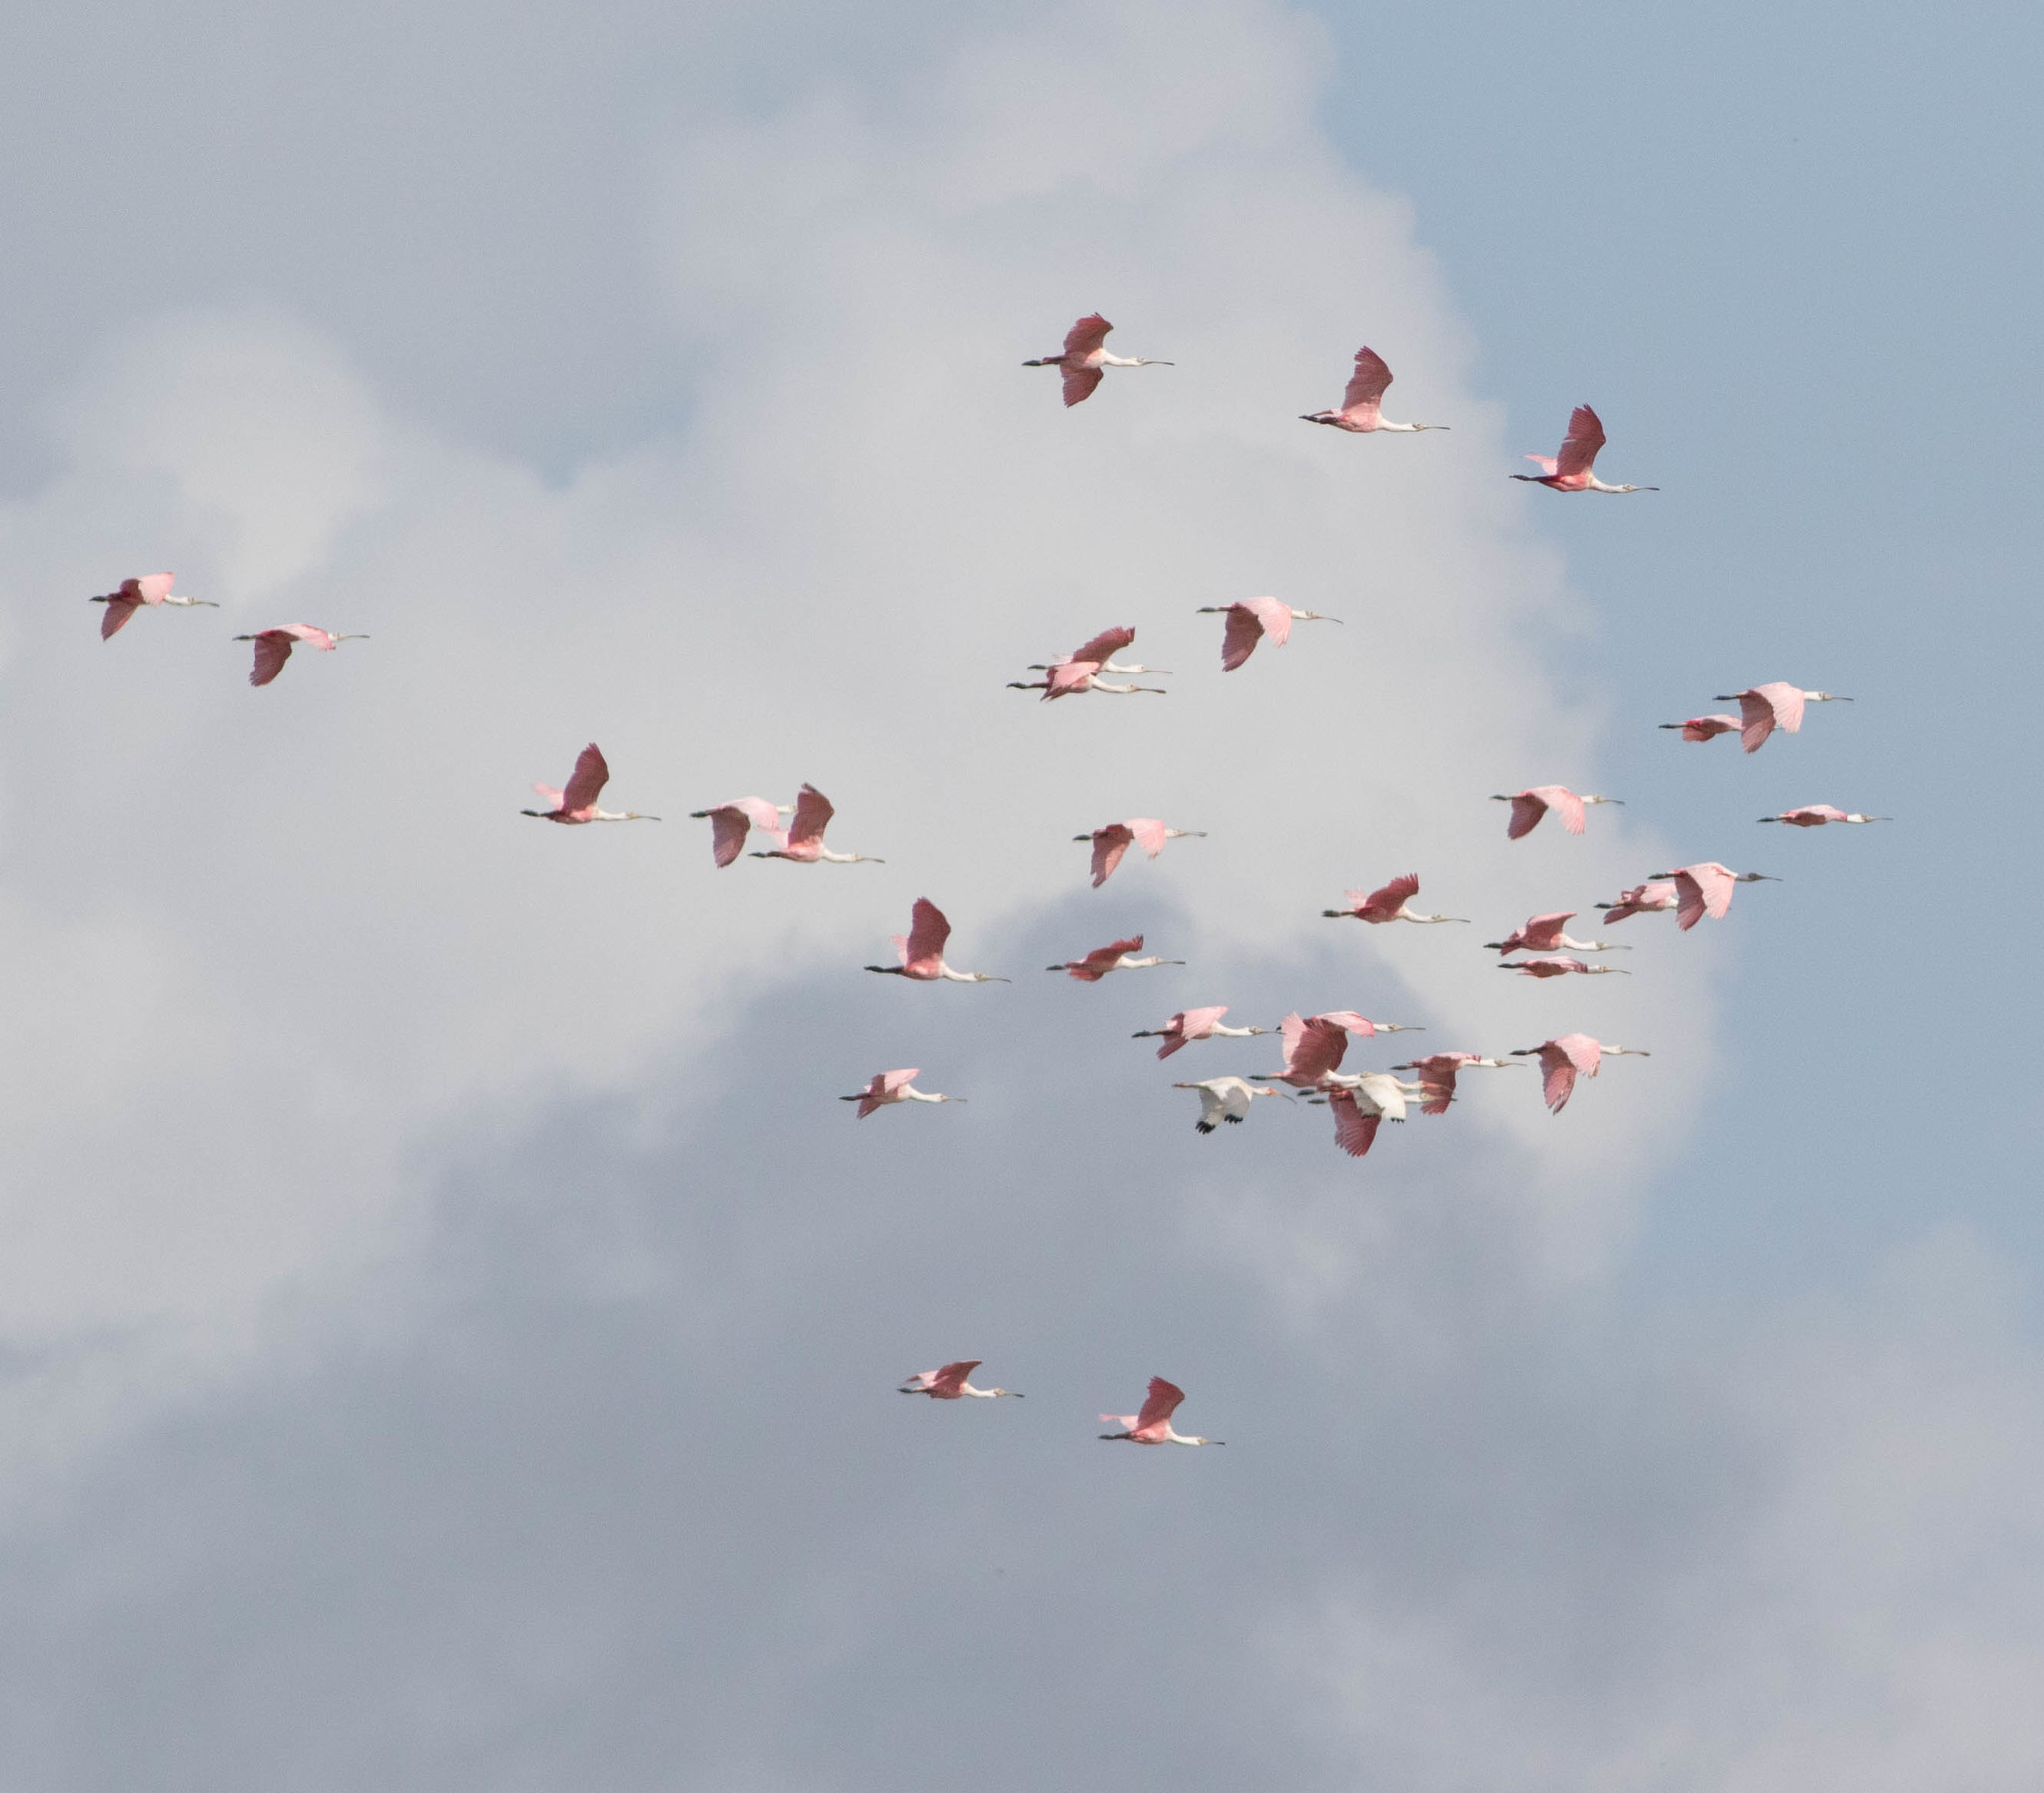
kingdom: Animalia
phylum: Chordata
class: Aves
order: Pelecaniformes
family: Threskiornithidae
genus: Platalea
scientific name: Platalea ajaja
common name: Roseate spoonbill
